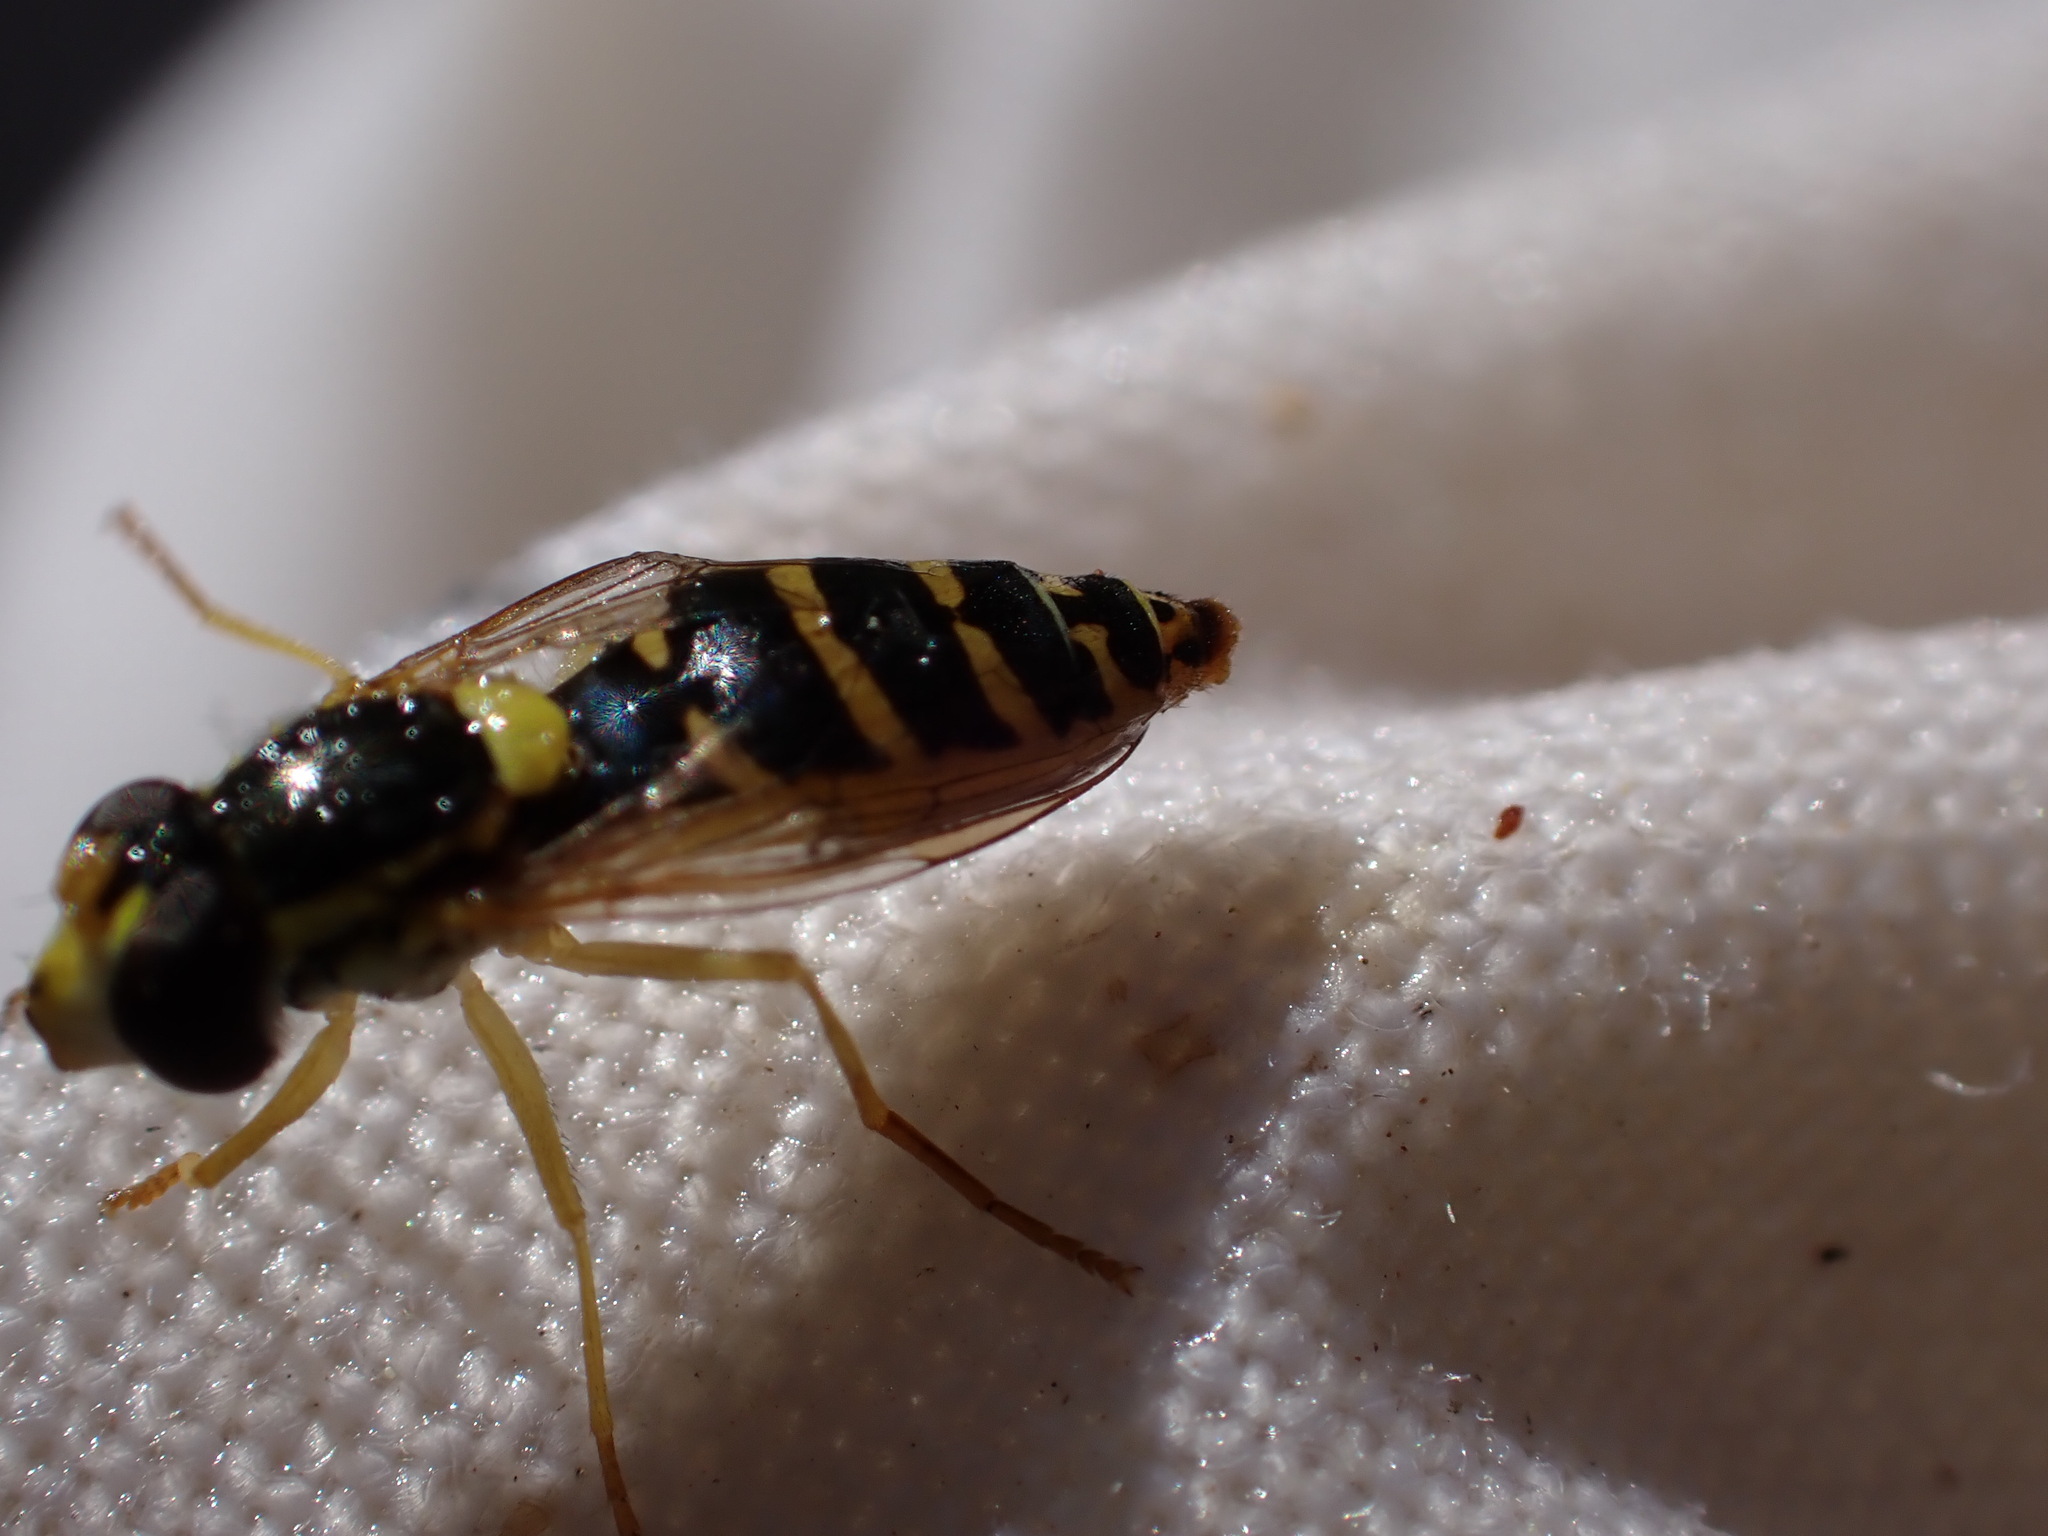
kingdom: Animalia
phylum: Arthropoda
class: Insecta
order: Diptera
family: Syrphidae
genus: Sphaerophoria
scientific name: Sphaerophoria
